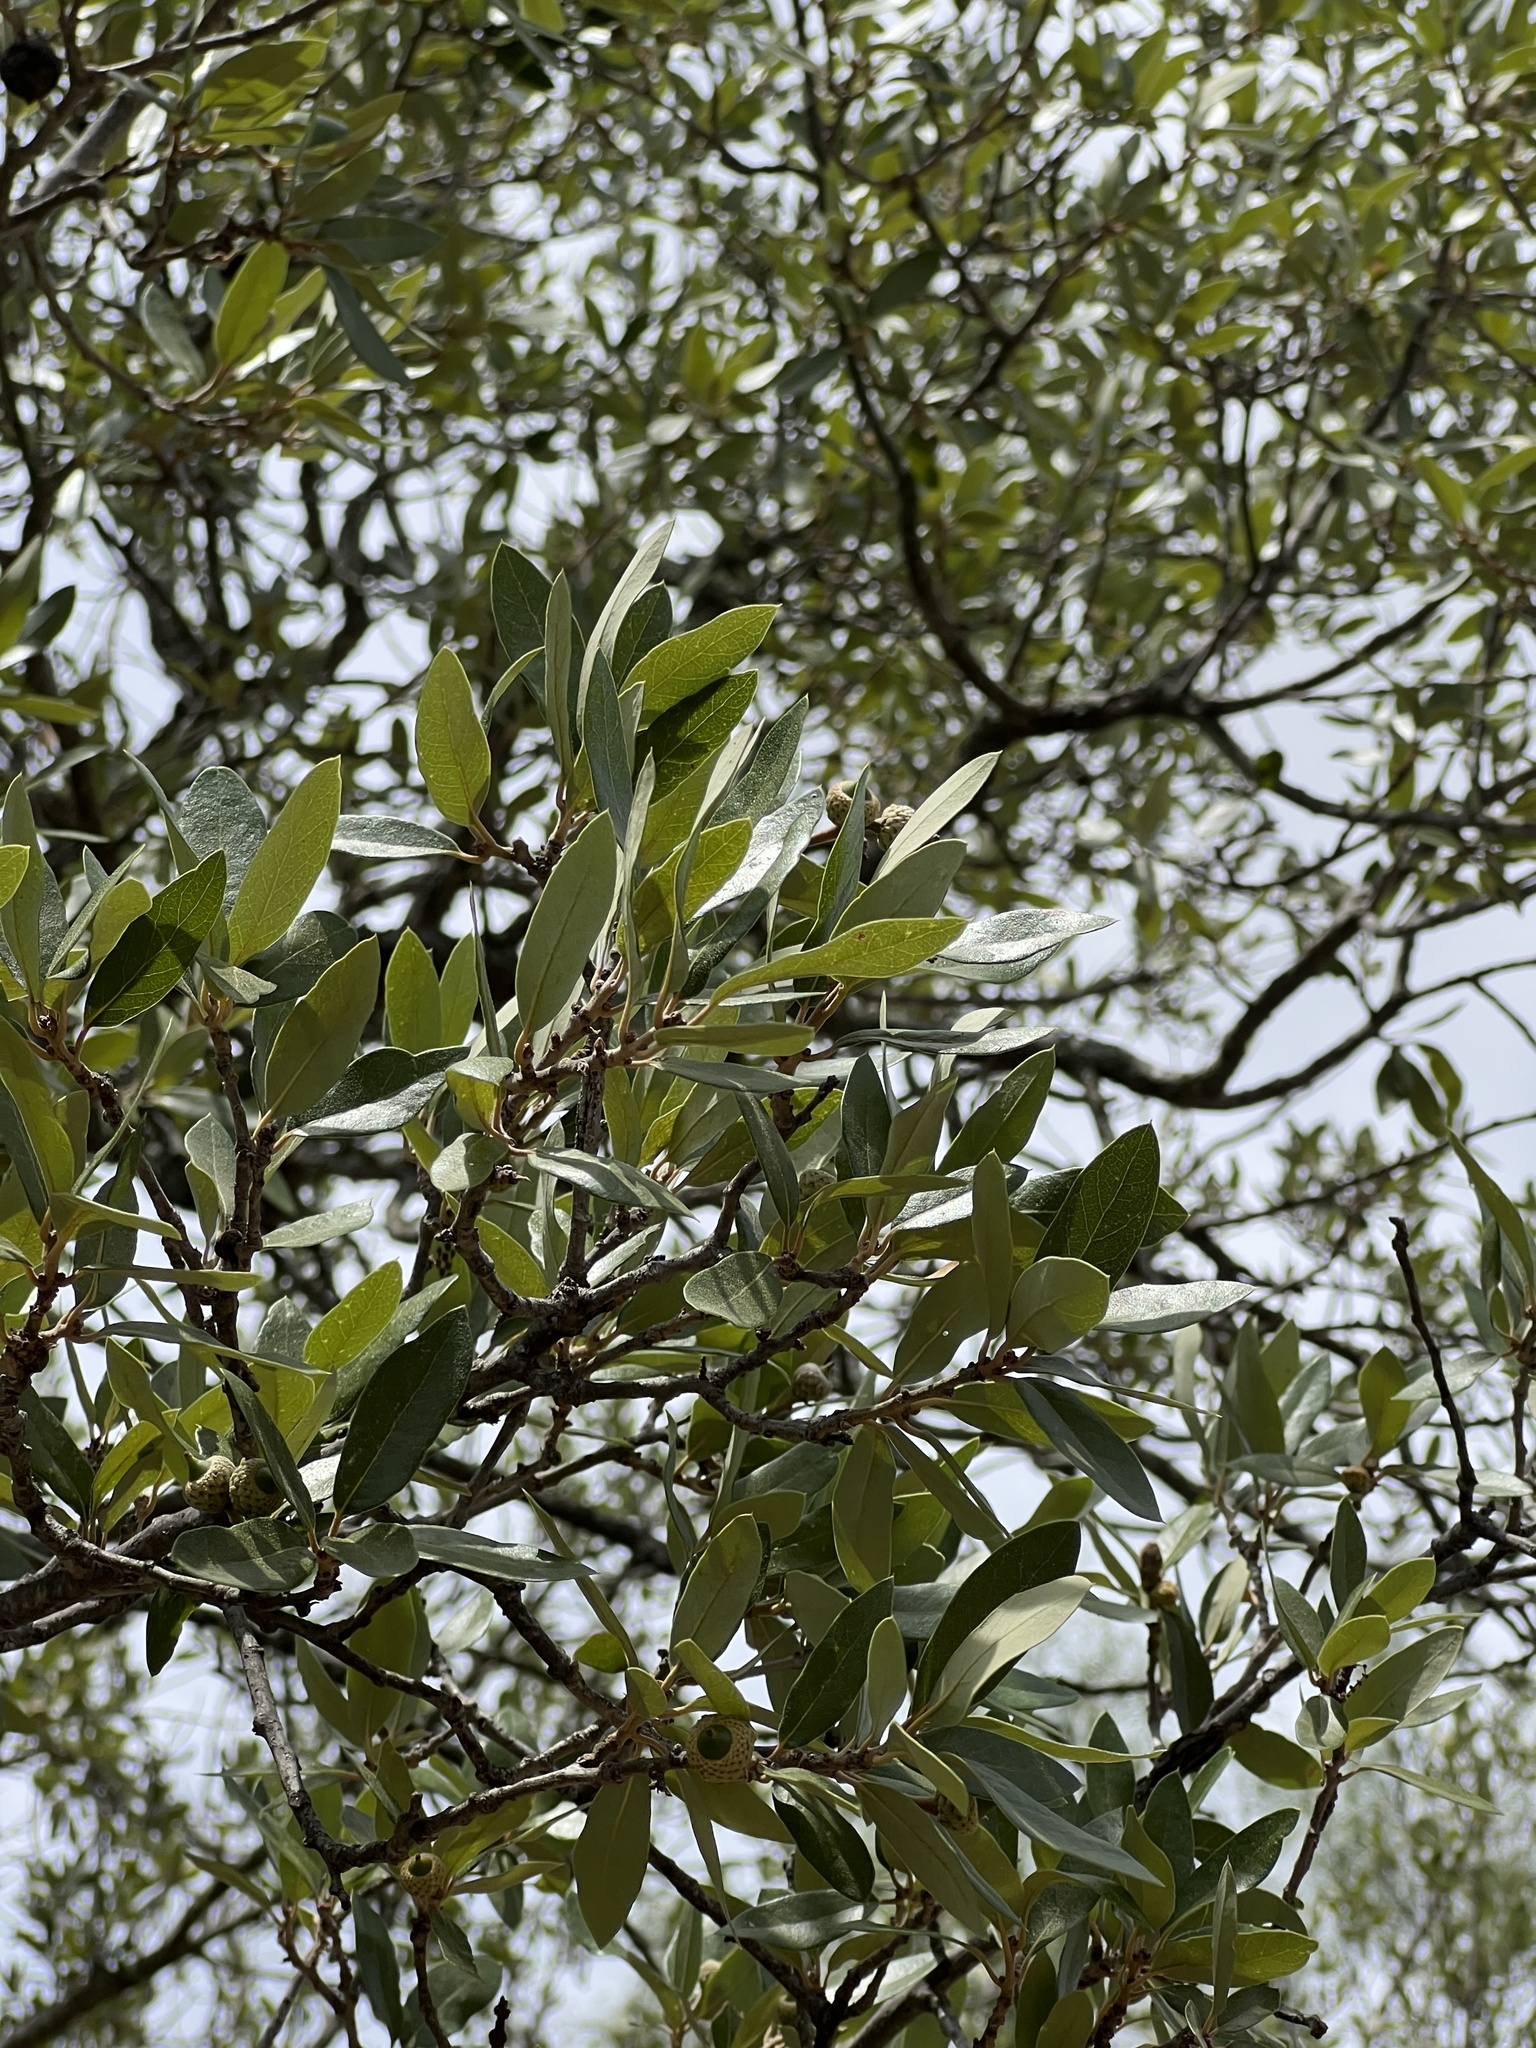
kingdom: Plantae
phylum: Tracheophyta
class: Magnoliopsida
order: Fagales
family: Fagaceae
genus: Quercus
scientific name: Quercus fusiformis
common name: Texas live oak
